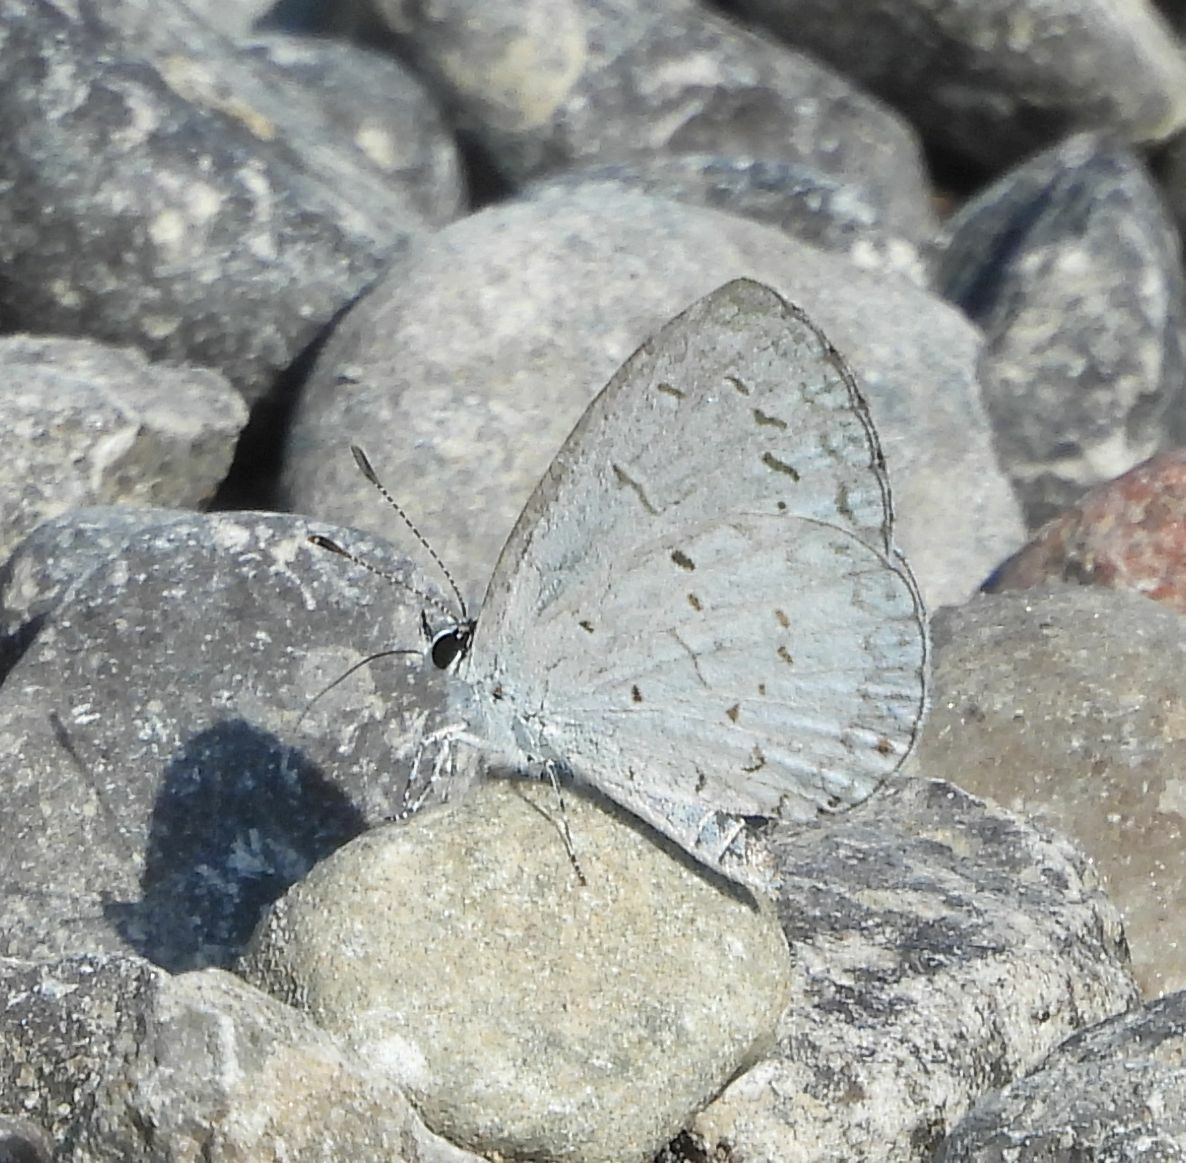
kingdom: Animalia
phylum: Arthropoda
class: Insecta
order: Lepidoptera
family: Lycaenidae
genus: Cyaniris
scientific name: Cyaniris neglecta
